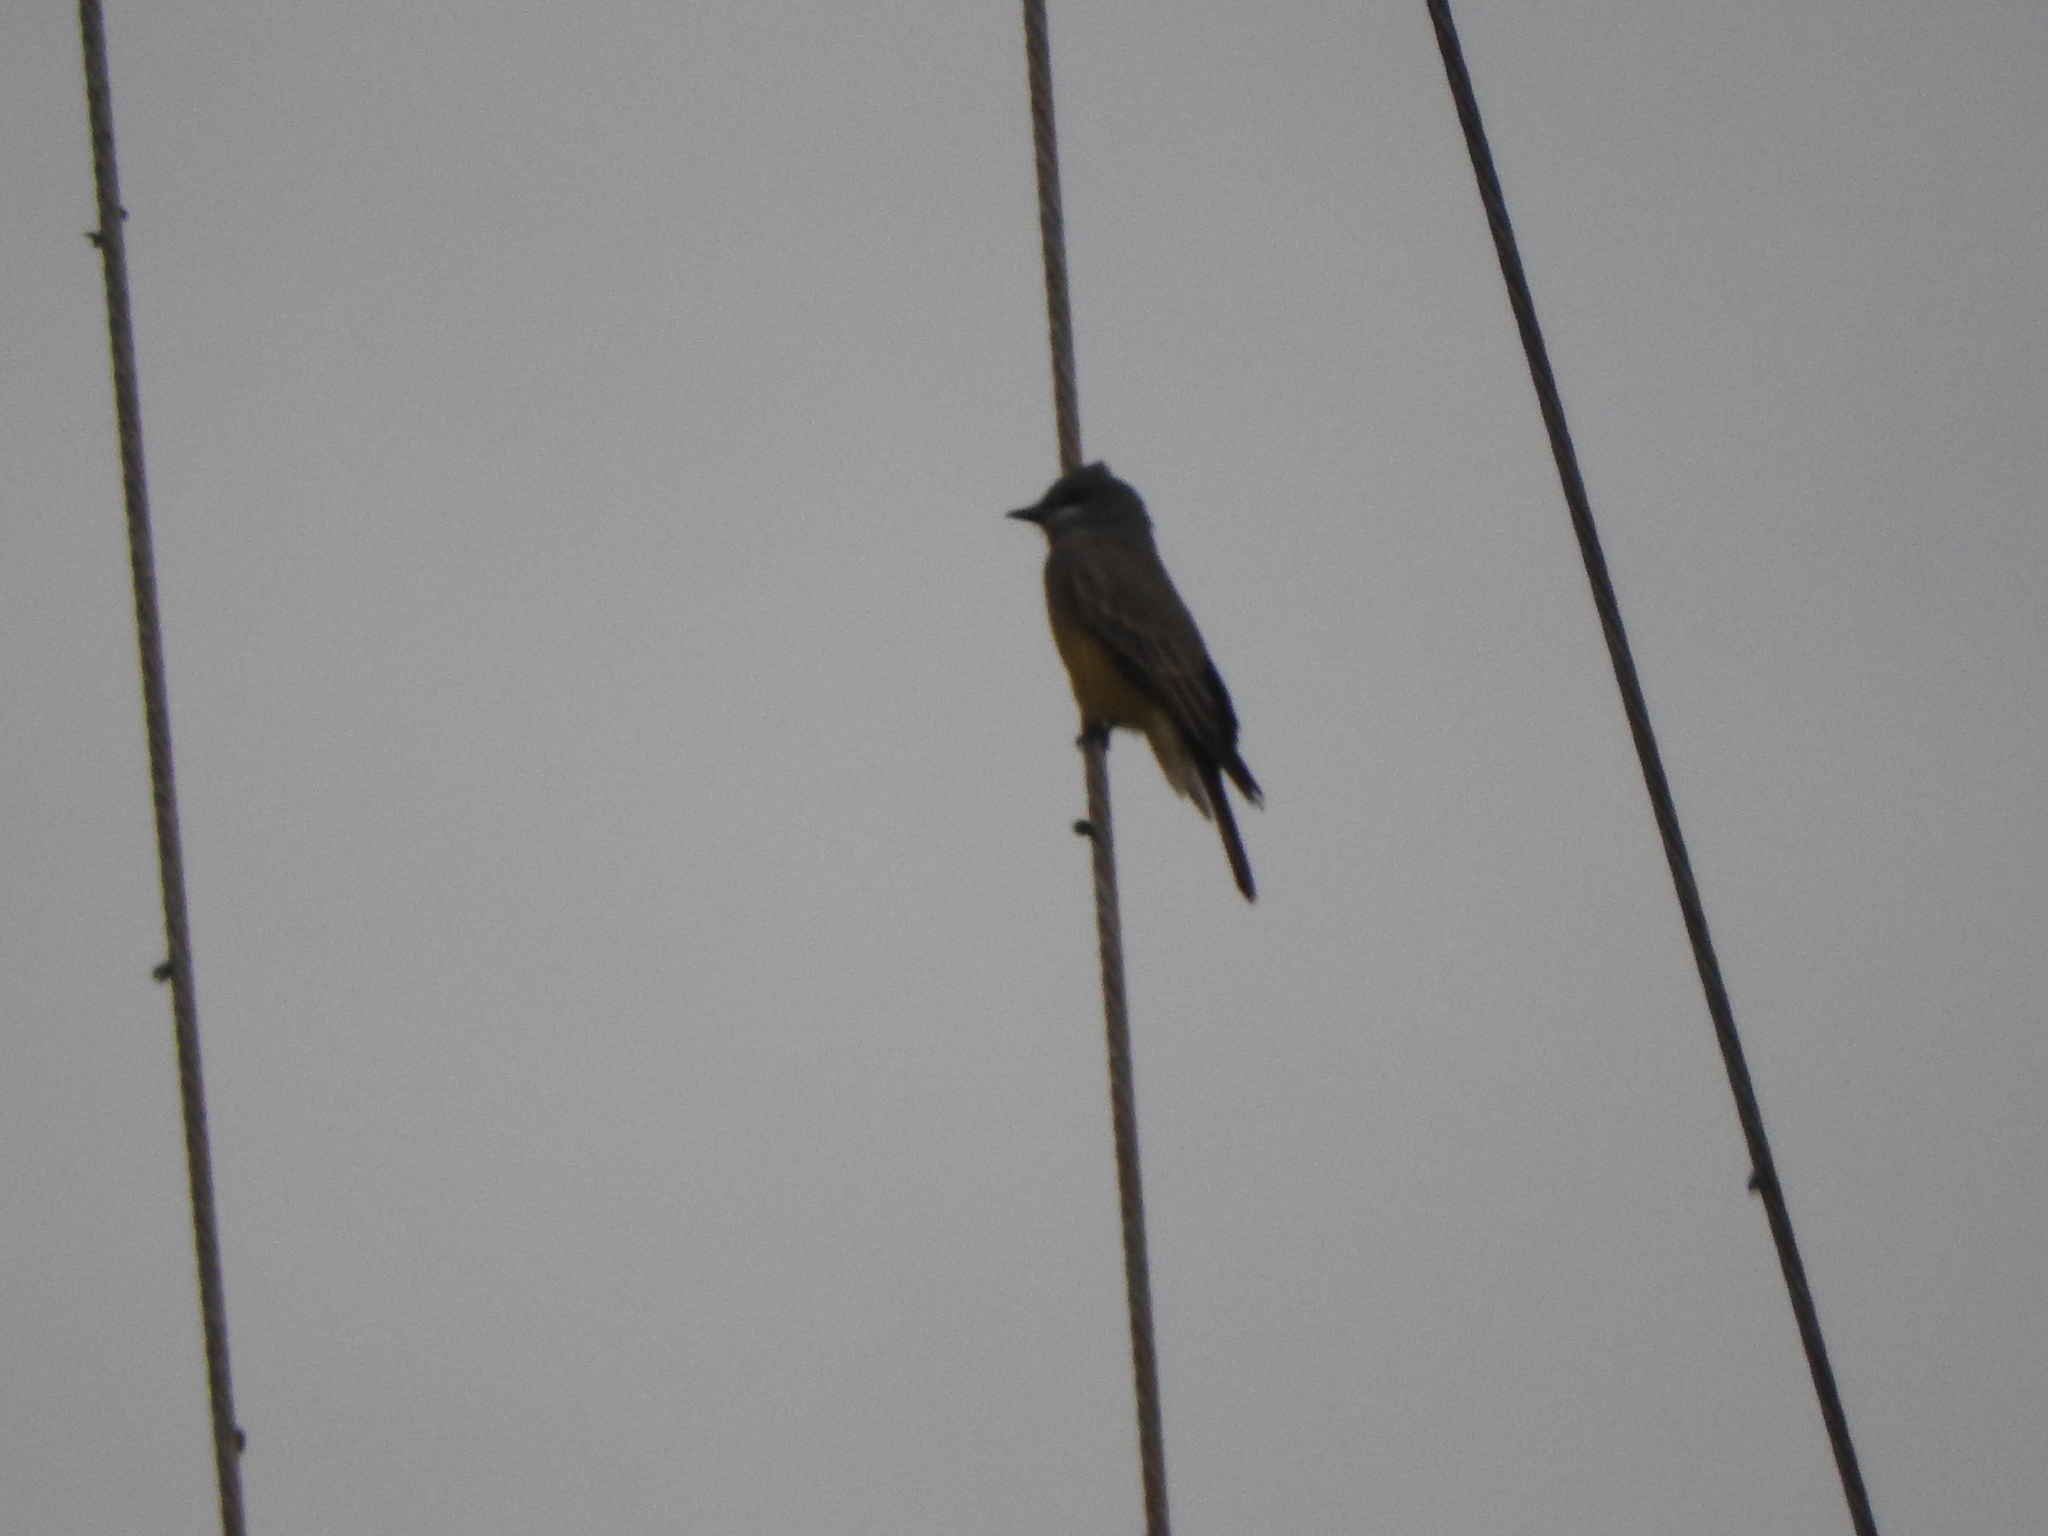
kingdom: Animalia
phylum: Chordata
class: Aves
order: Passeriformes
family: Tyrannidae
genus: Tyrannus
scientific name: Tyrannus vociferans
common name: Cassin's kingbird
